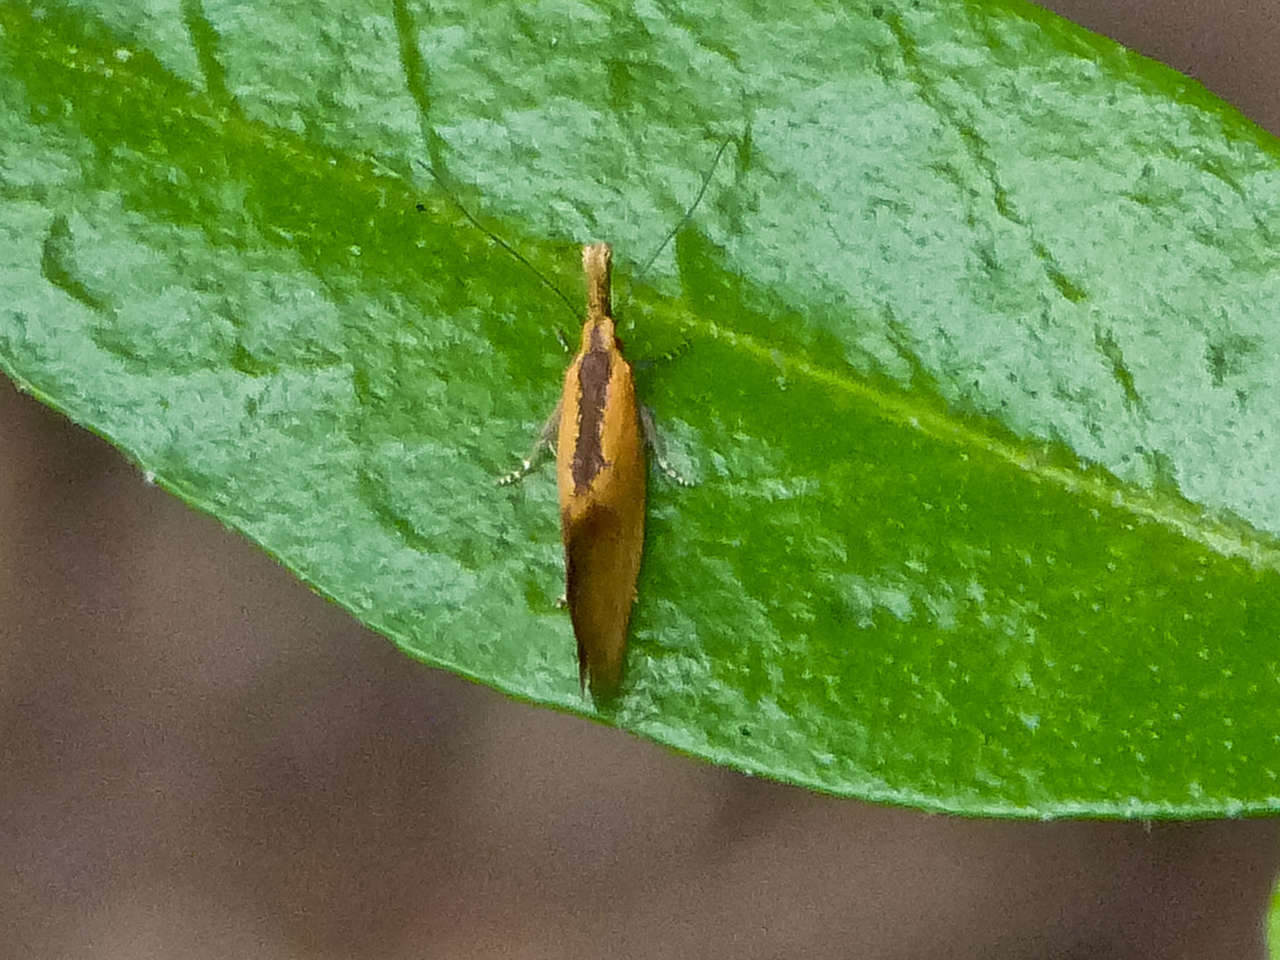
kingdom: Animalia
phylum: Arthropoda
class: Insecta
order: Lepidoptera
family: Oecophoridae
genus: Thema
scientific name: Thema psammoxantha
